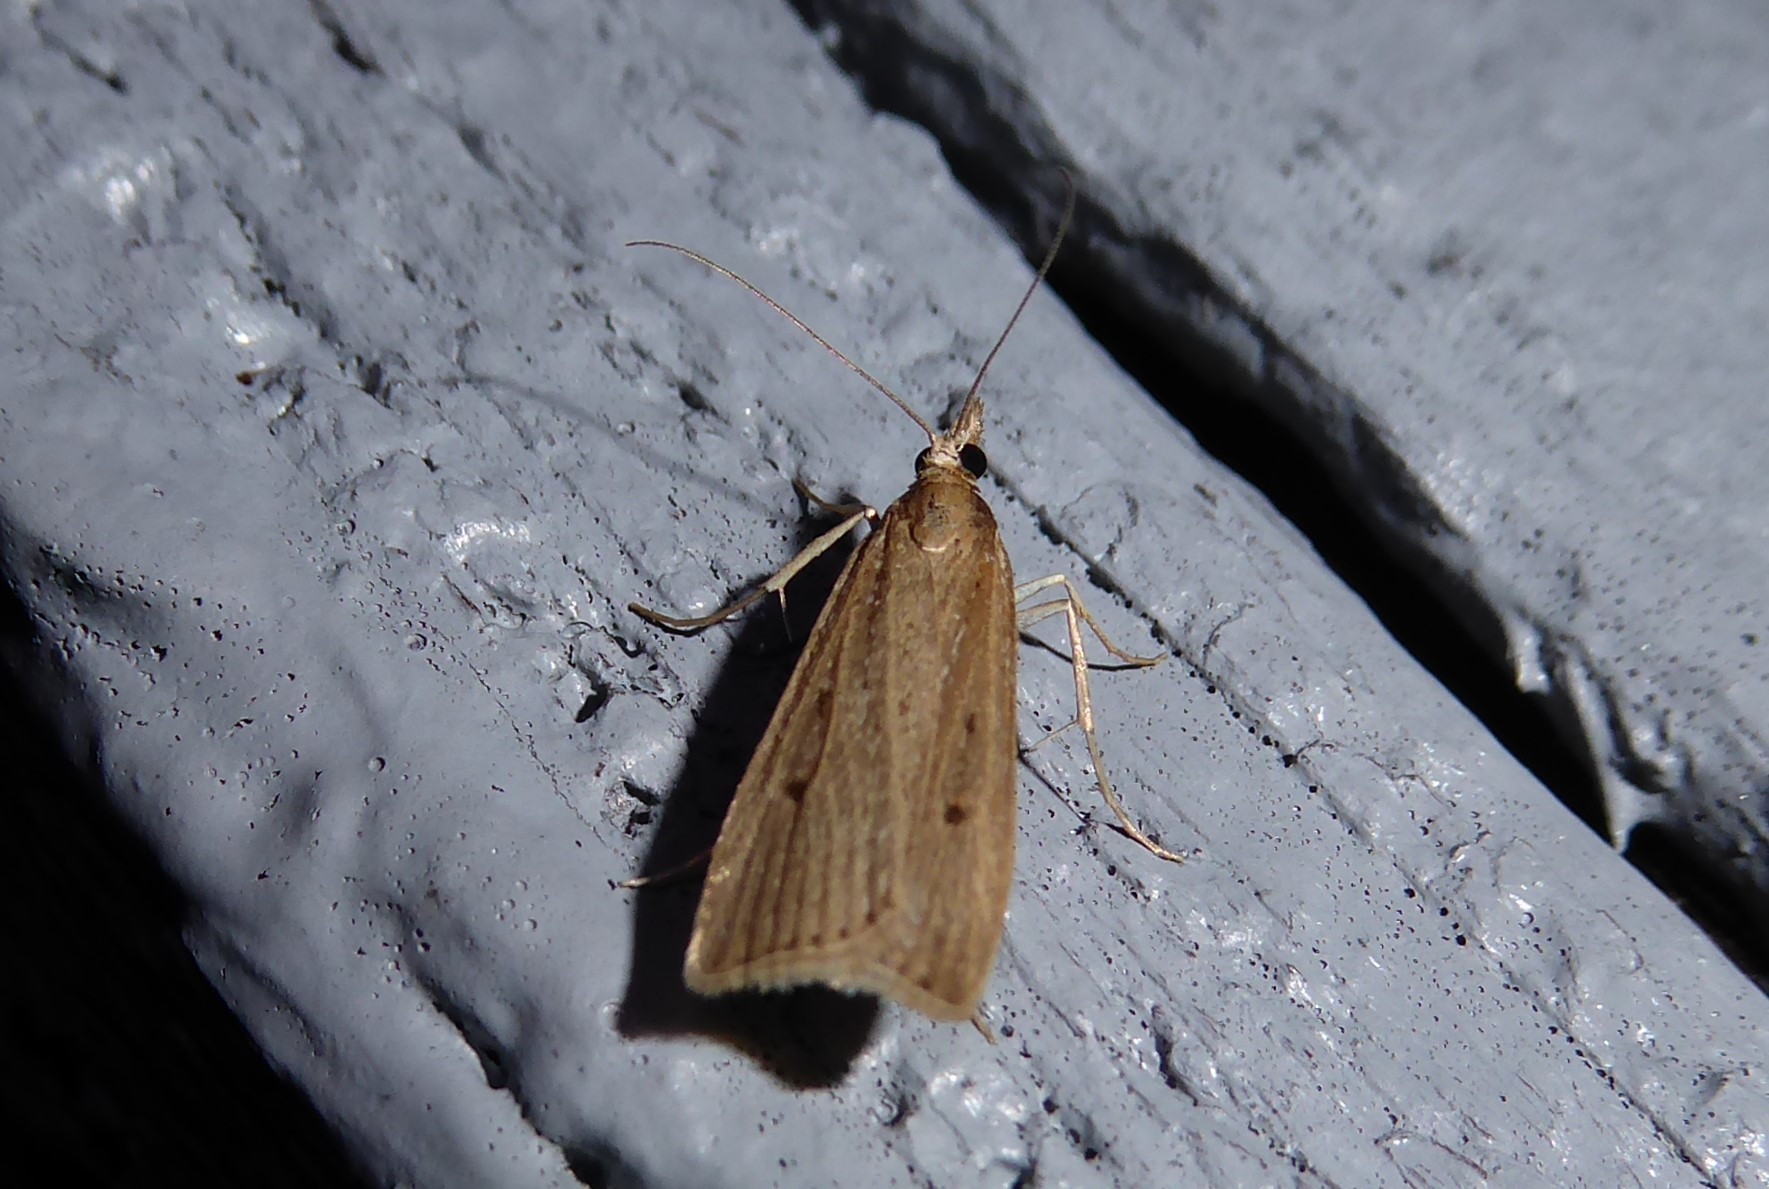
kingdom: Animalia
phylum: Arthropoda
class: Insecta
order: Lepidoptera
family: Crambidae
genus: Eudonia
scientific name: Eudonia sabulosella
